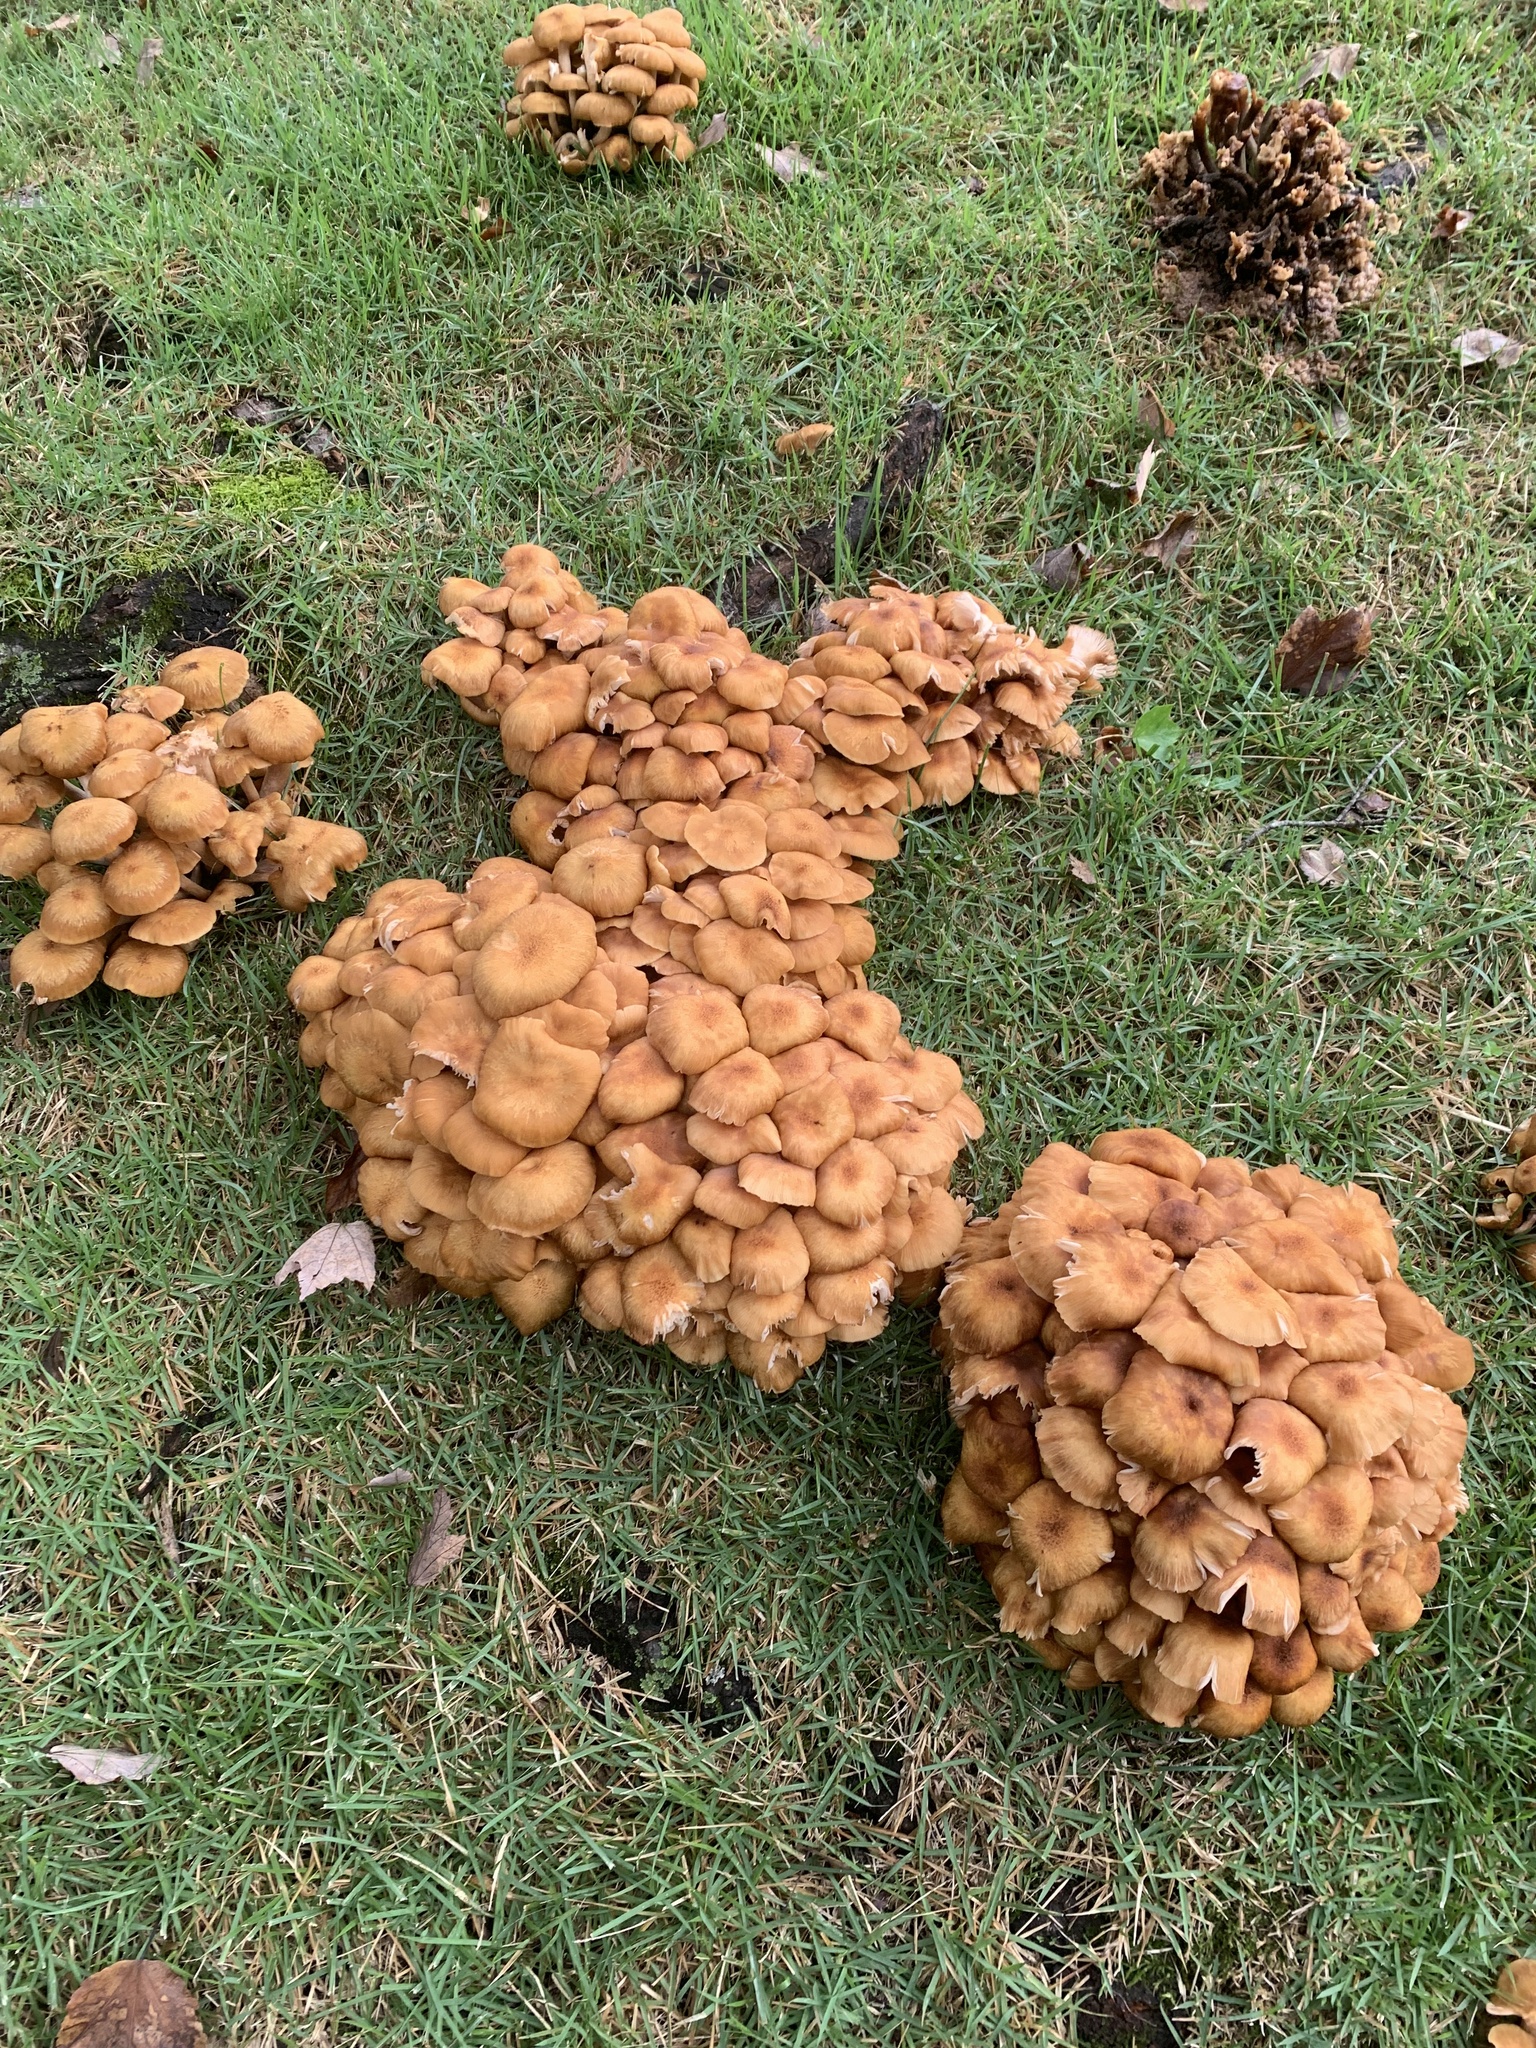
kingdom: Fungi
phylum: Basidiomycota
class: Agaricomycetes
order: Agaricales
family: Physalacriaceae
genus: Desarmillaria
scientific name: Desarmillaria caespitosa
